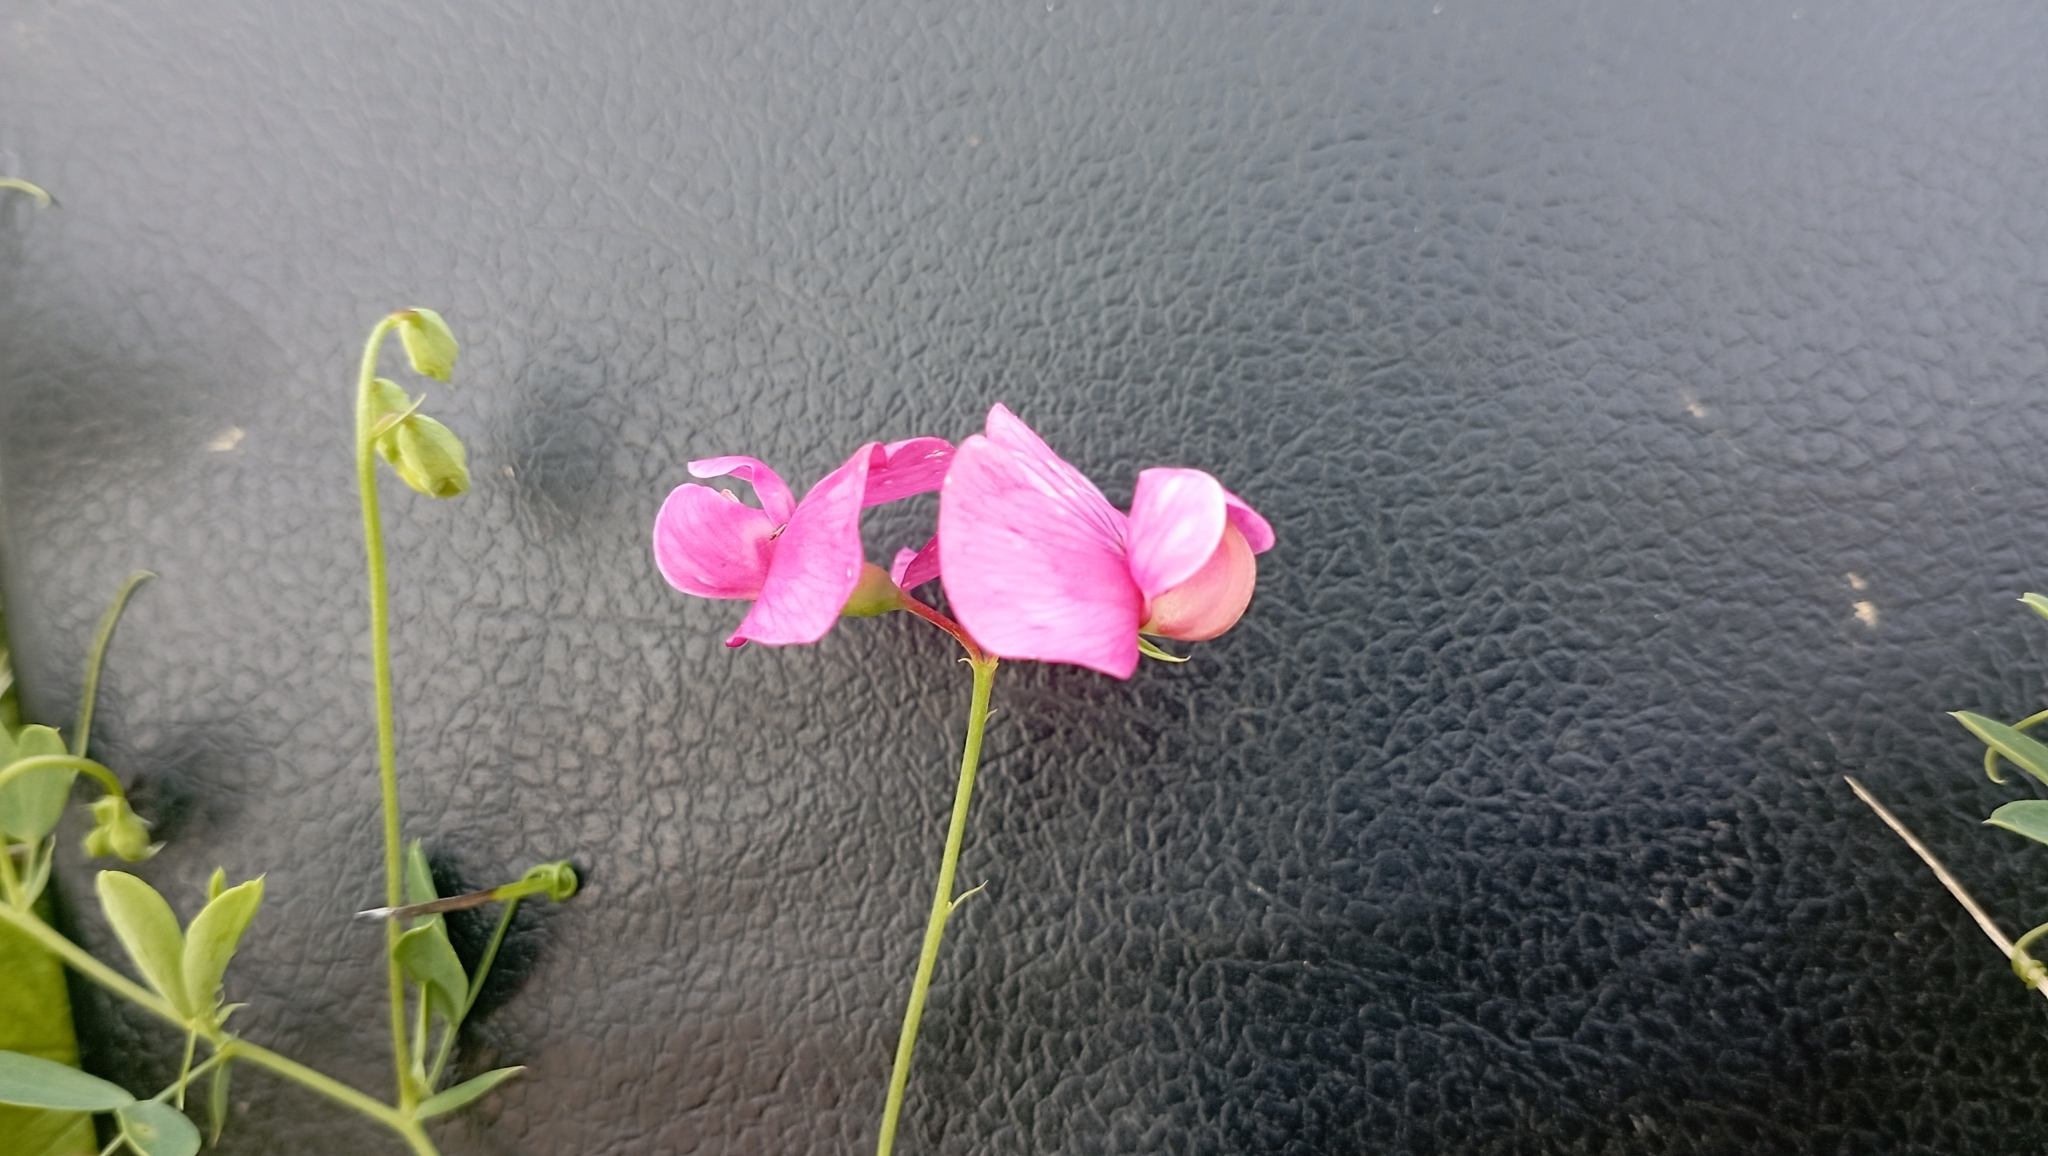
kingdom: Plantae
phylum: Tracheophyta
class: Magnoliopsida
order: Fabales
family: Fabaceae
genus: Lathyrus
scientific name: Lathyrus tuberosus
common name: Tuberous pea
